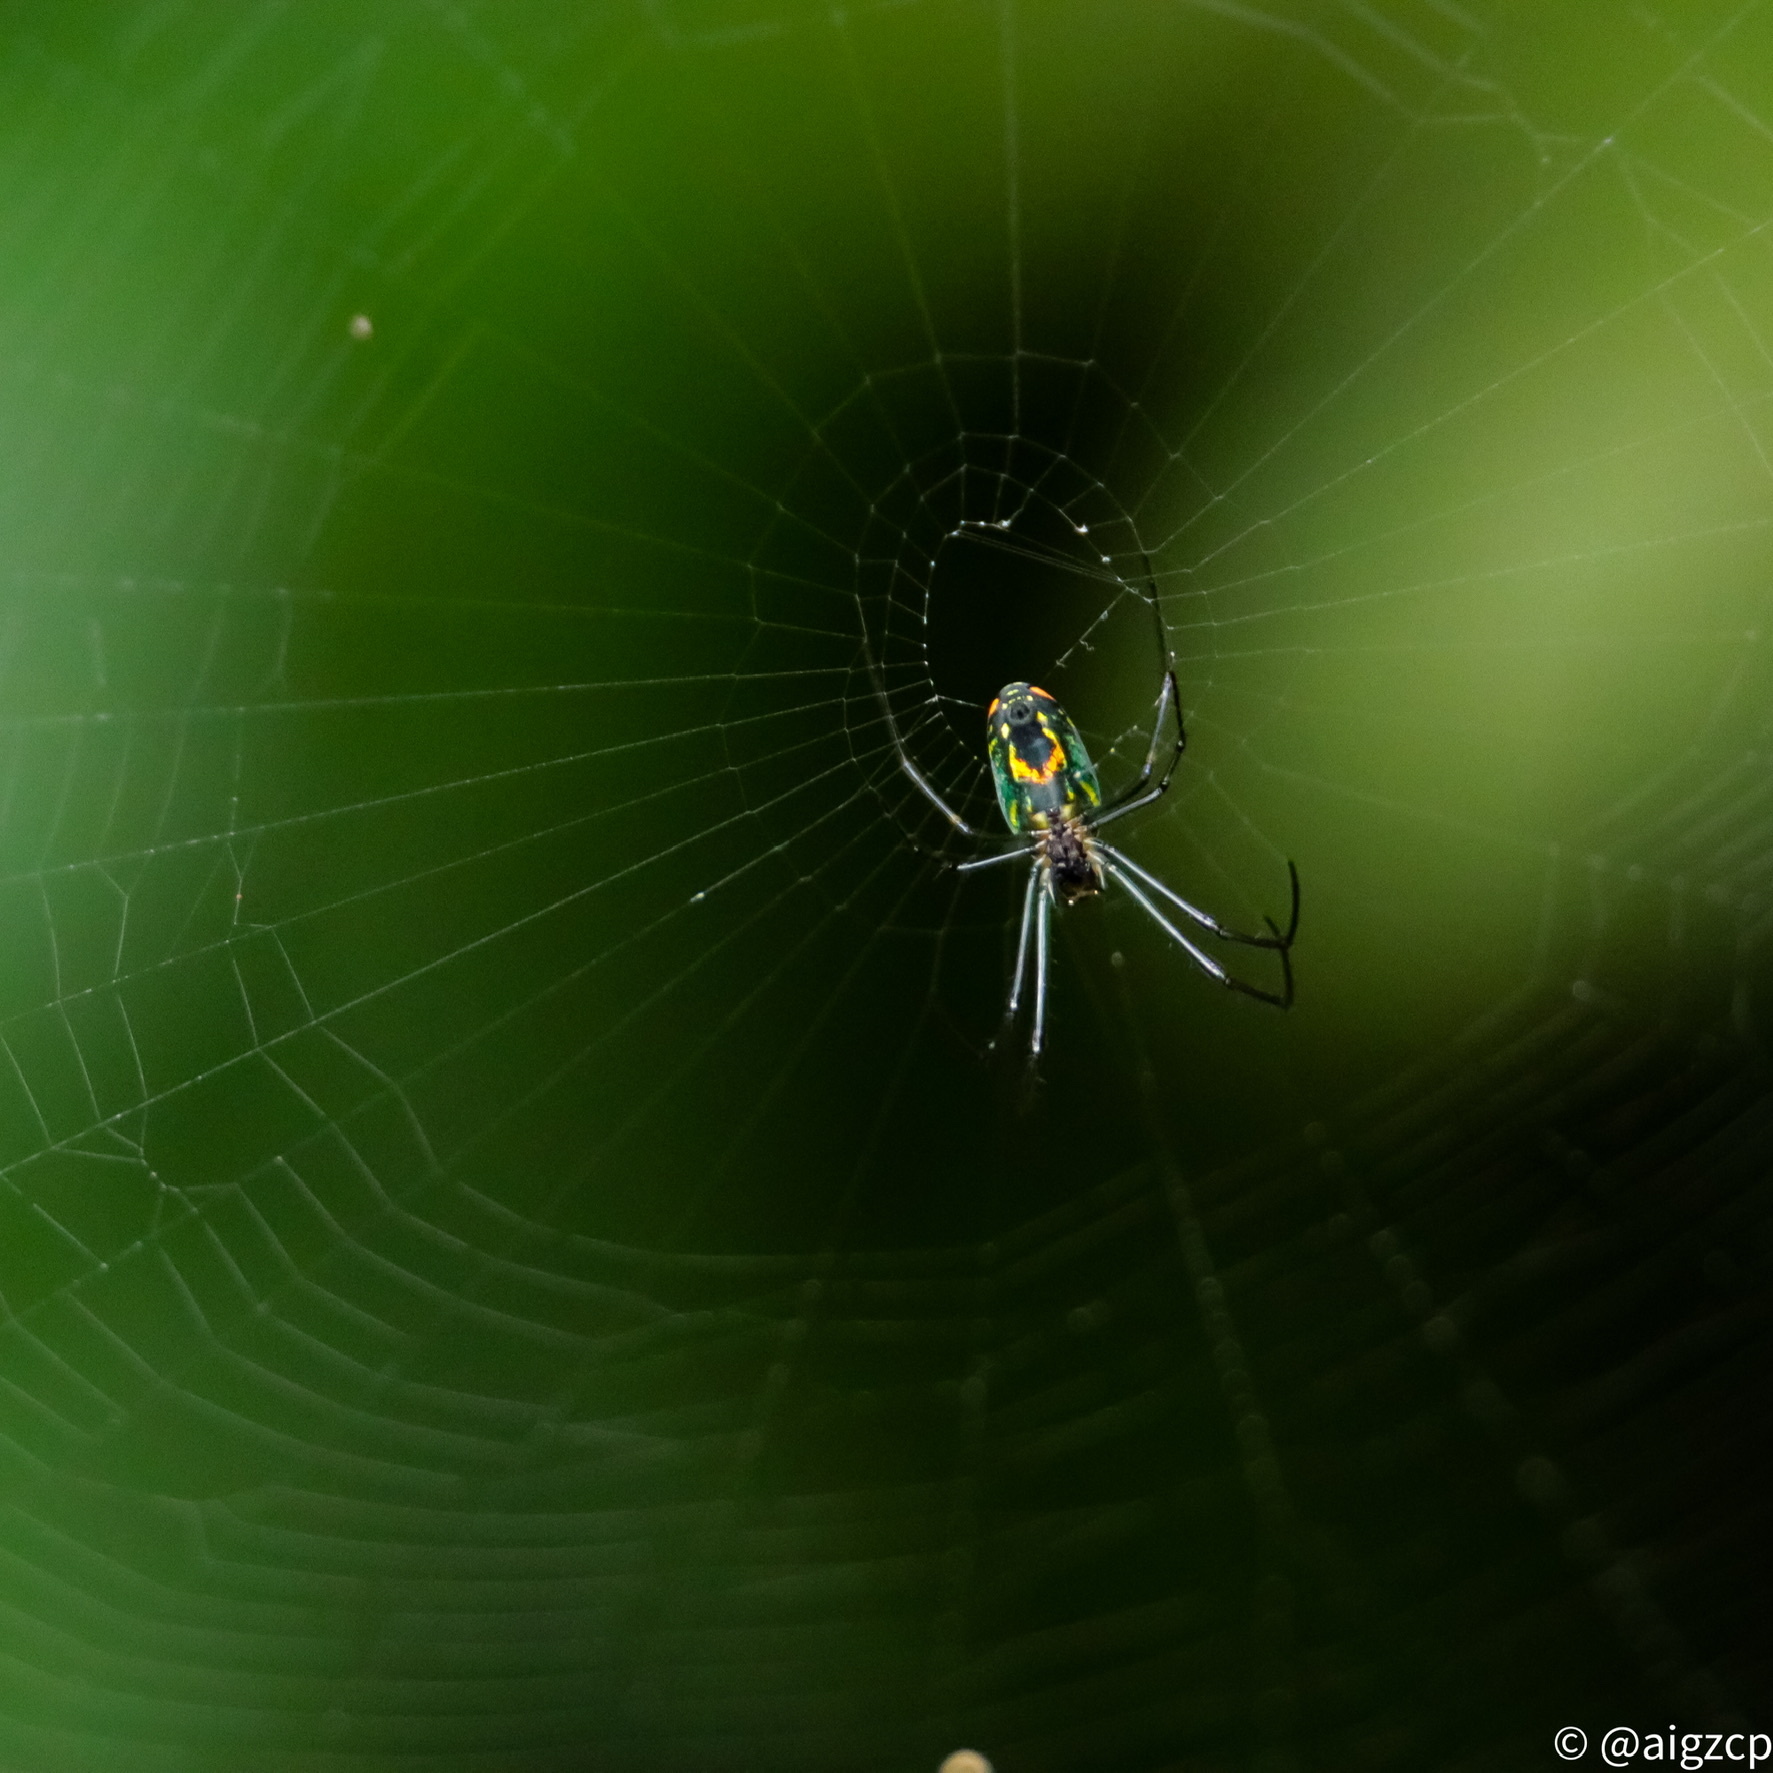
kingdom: Animalia
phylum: Arthropoda
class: Arachnida
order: Araneae
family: Tetragnathidae
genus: Leucauge
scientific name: Leucauge argyrobapta
